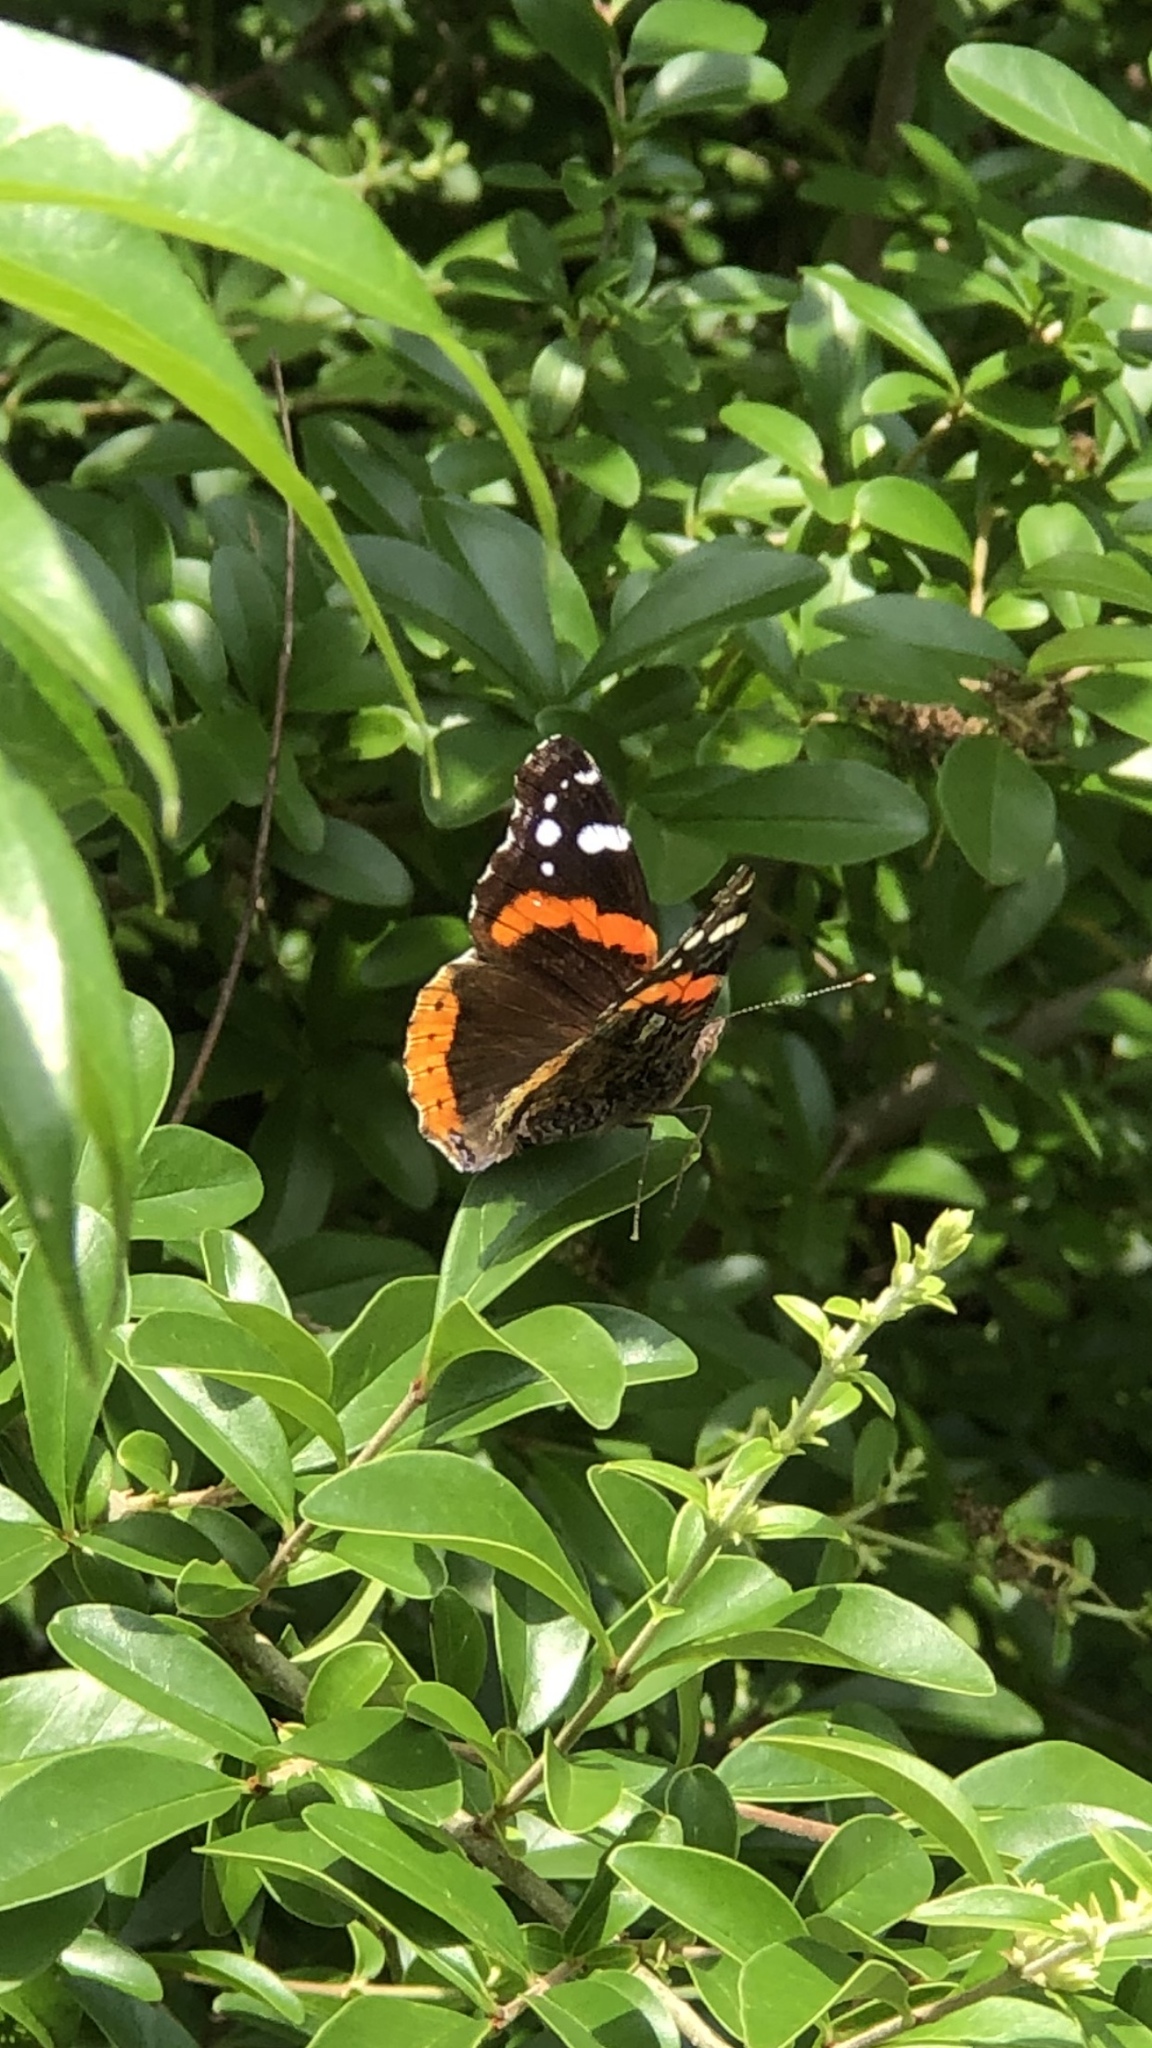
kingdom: Animalia
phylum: Arthropoda
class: Insecta
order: Lepidoptera
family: Nymphalidae
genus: Vanessa
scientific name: Vanessa atalanta
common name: Red admiral
